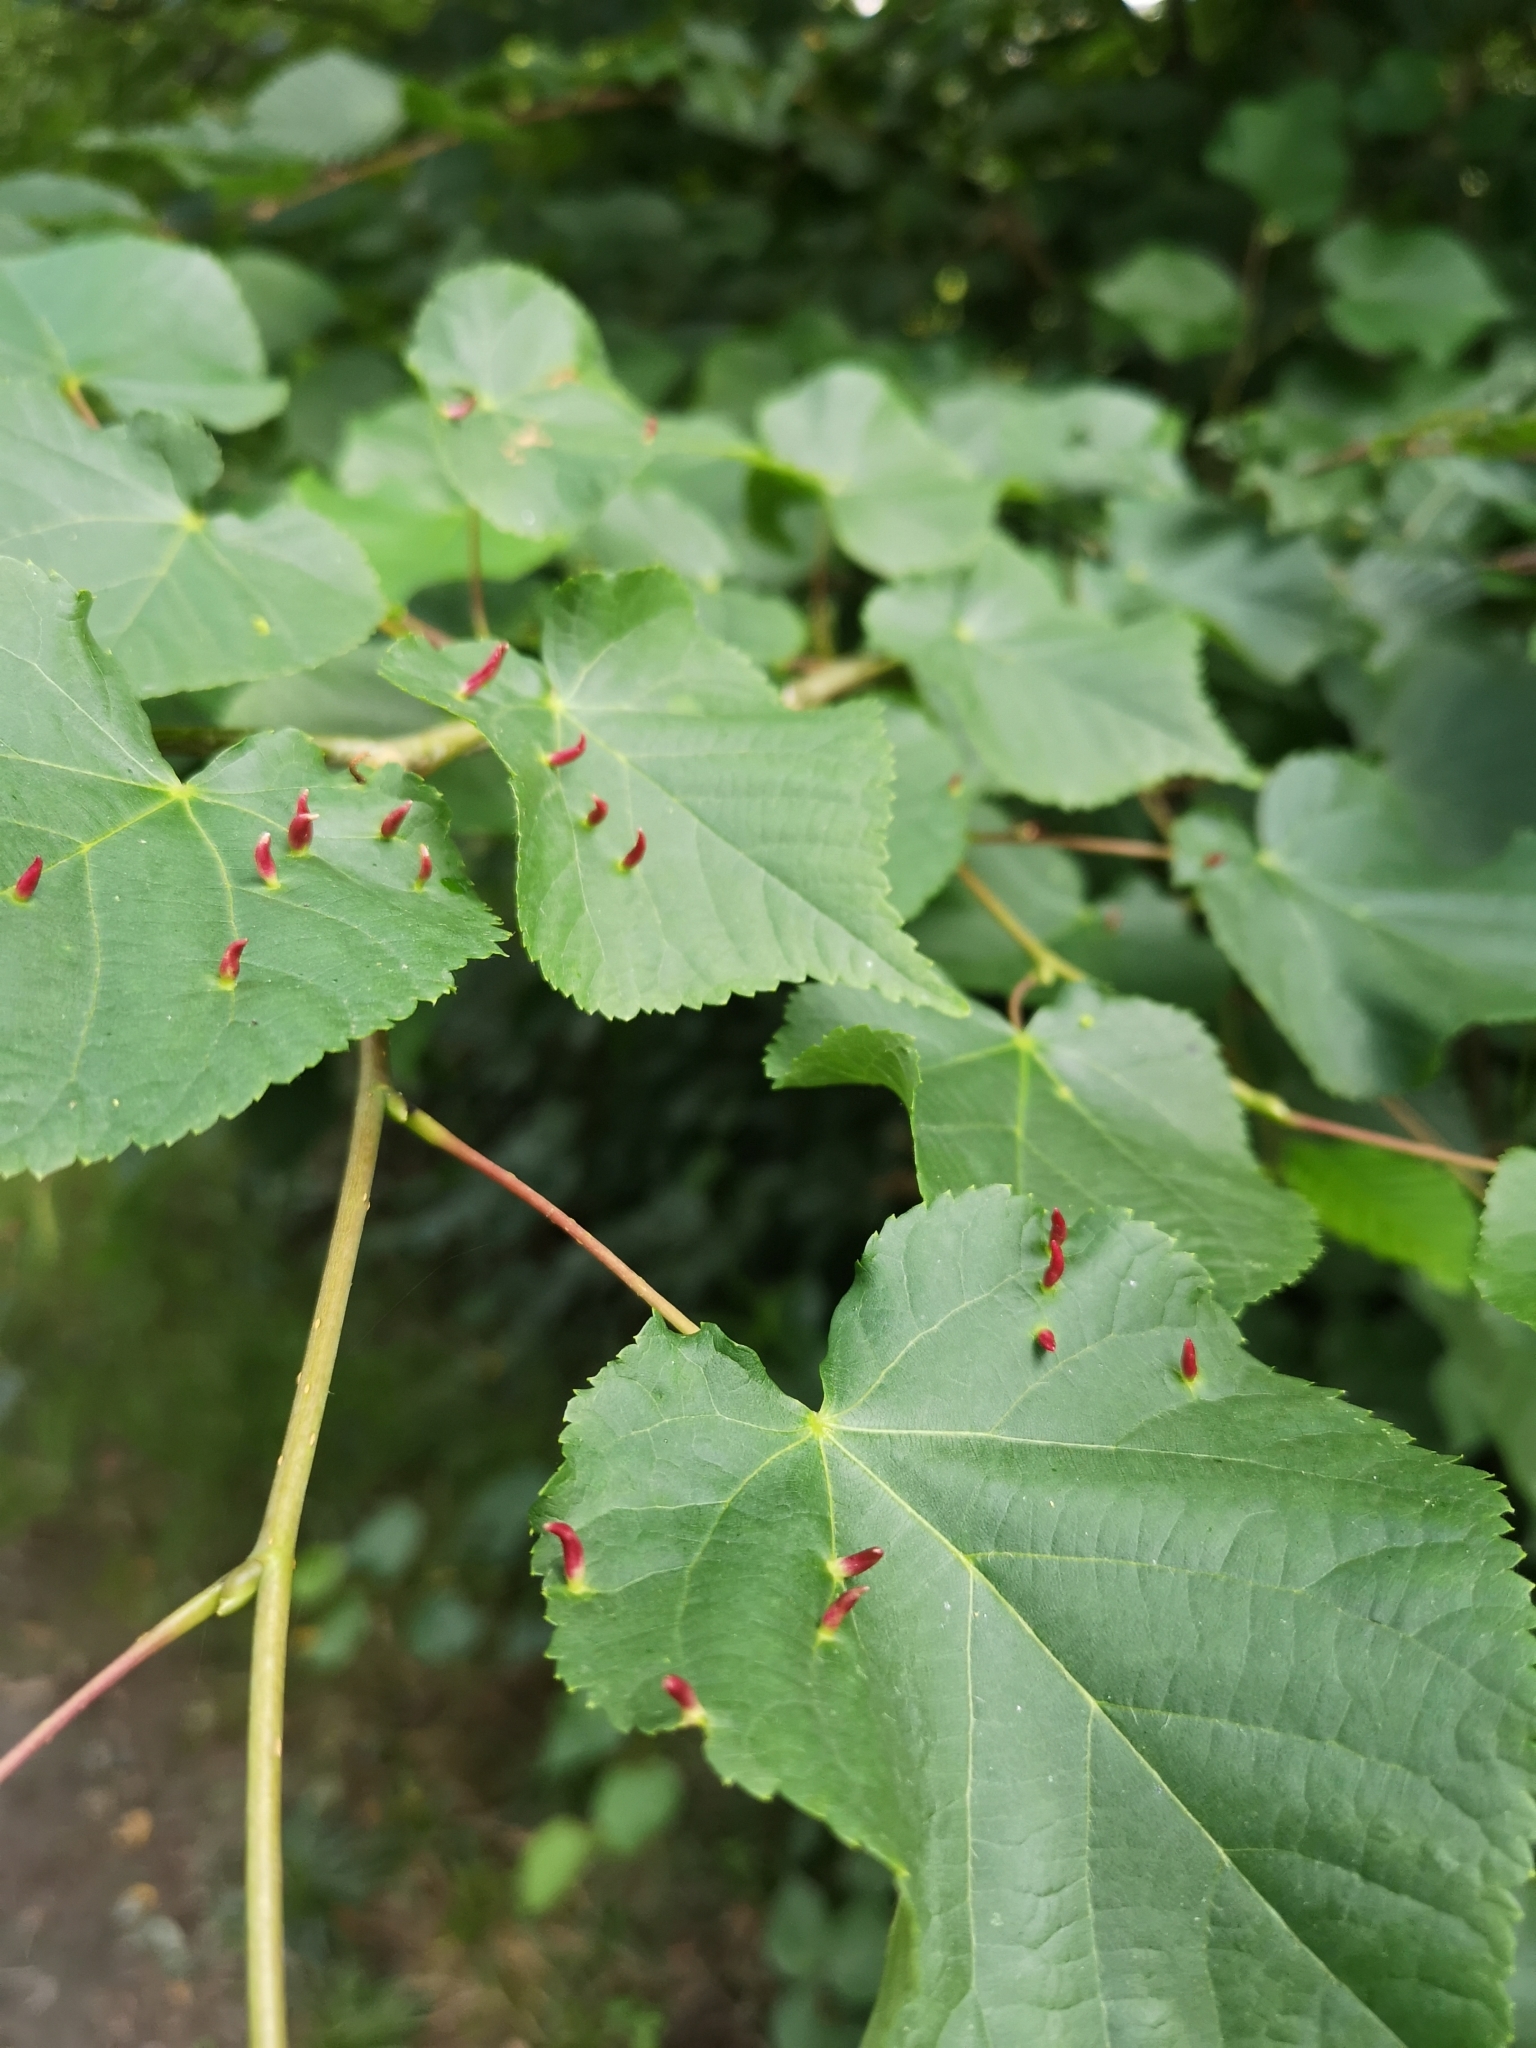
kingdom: Animalia
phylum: Arthropoda
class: Arachnida
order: Trombidiformes
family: Eriophyidae
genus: Eriophyes
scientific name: Eriophyes tiliae
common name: Red nail gall mite
